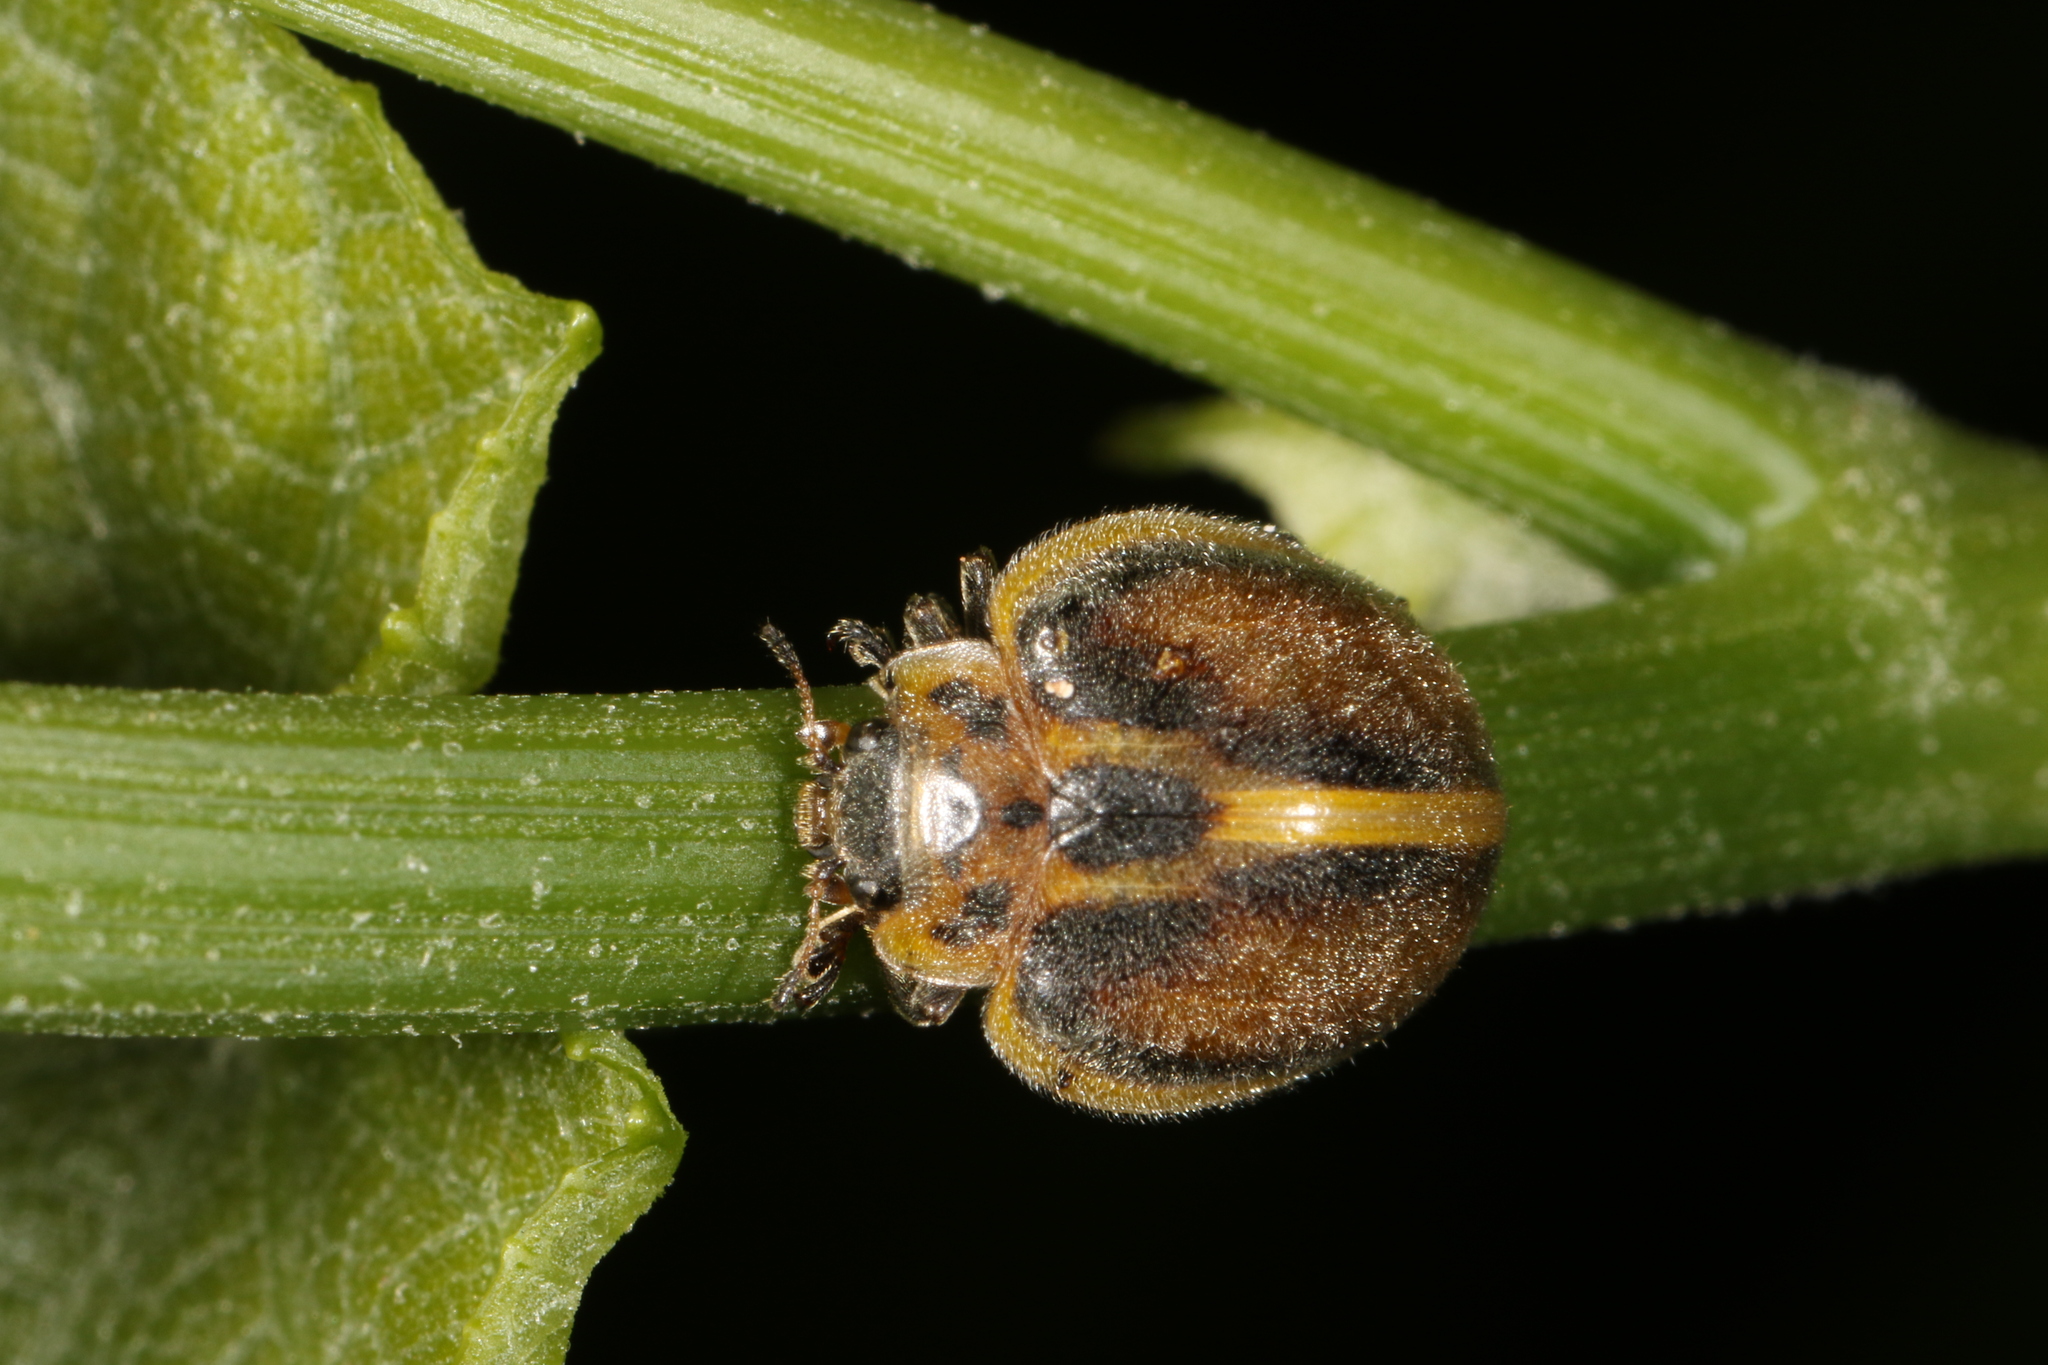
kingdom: Animalia
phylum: Arthropoda
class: Insecta
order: Coleoptera
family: Coccinellidae
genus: Epilachna
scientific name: Epilachna
